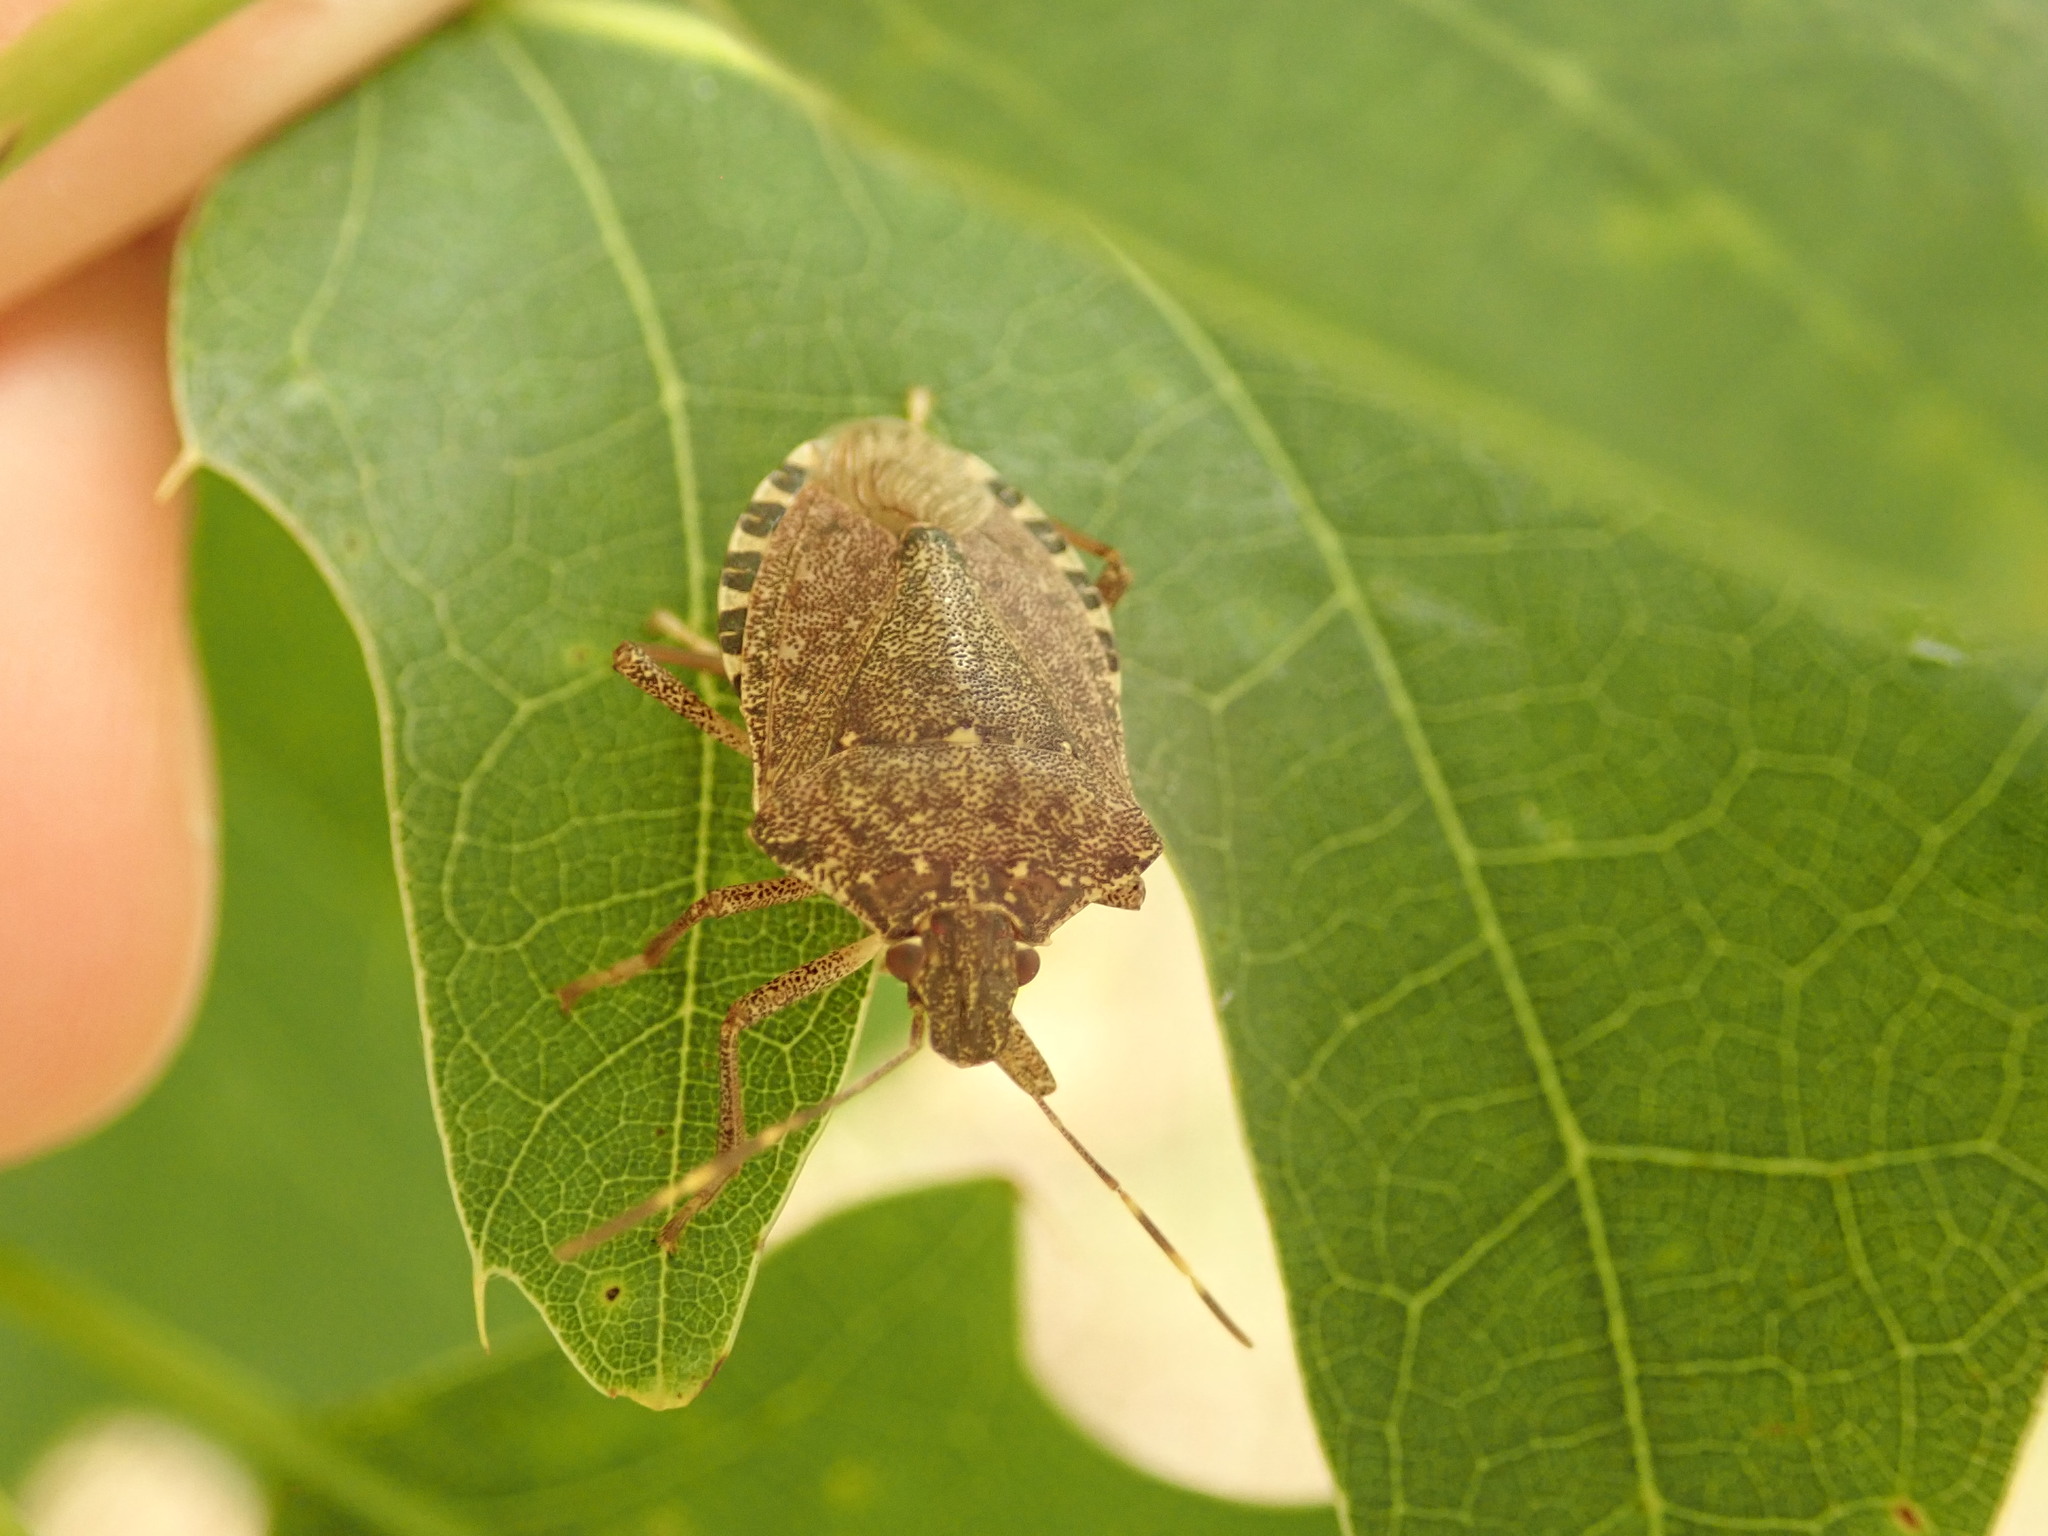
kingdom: Animalia
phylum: Arthropoda
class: Insecta
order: Hemiptera
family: Pentatomidae
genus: Halyomorpha
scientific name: Halyomorpha halys
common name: Brown marmorated stink bug
